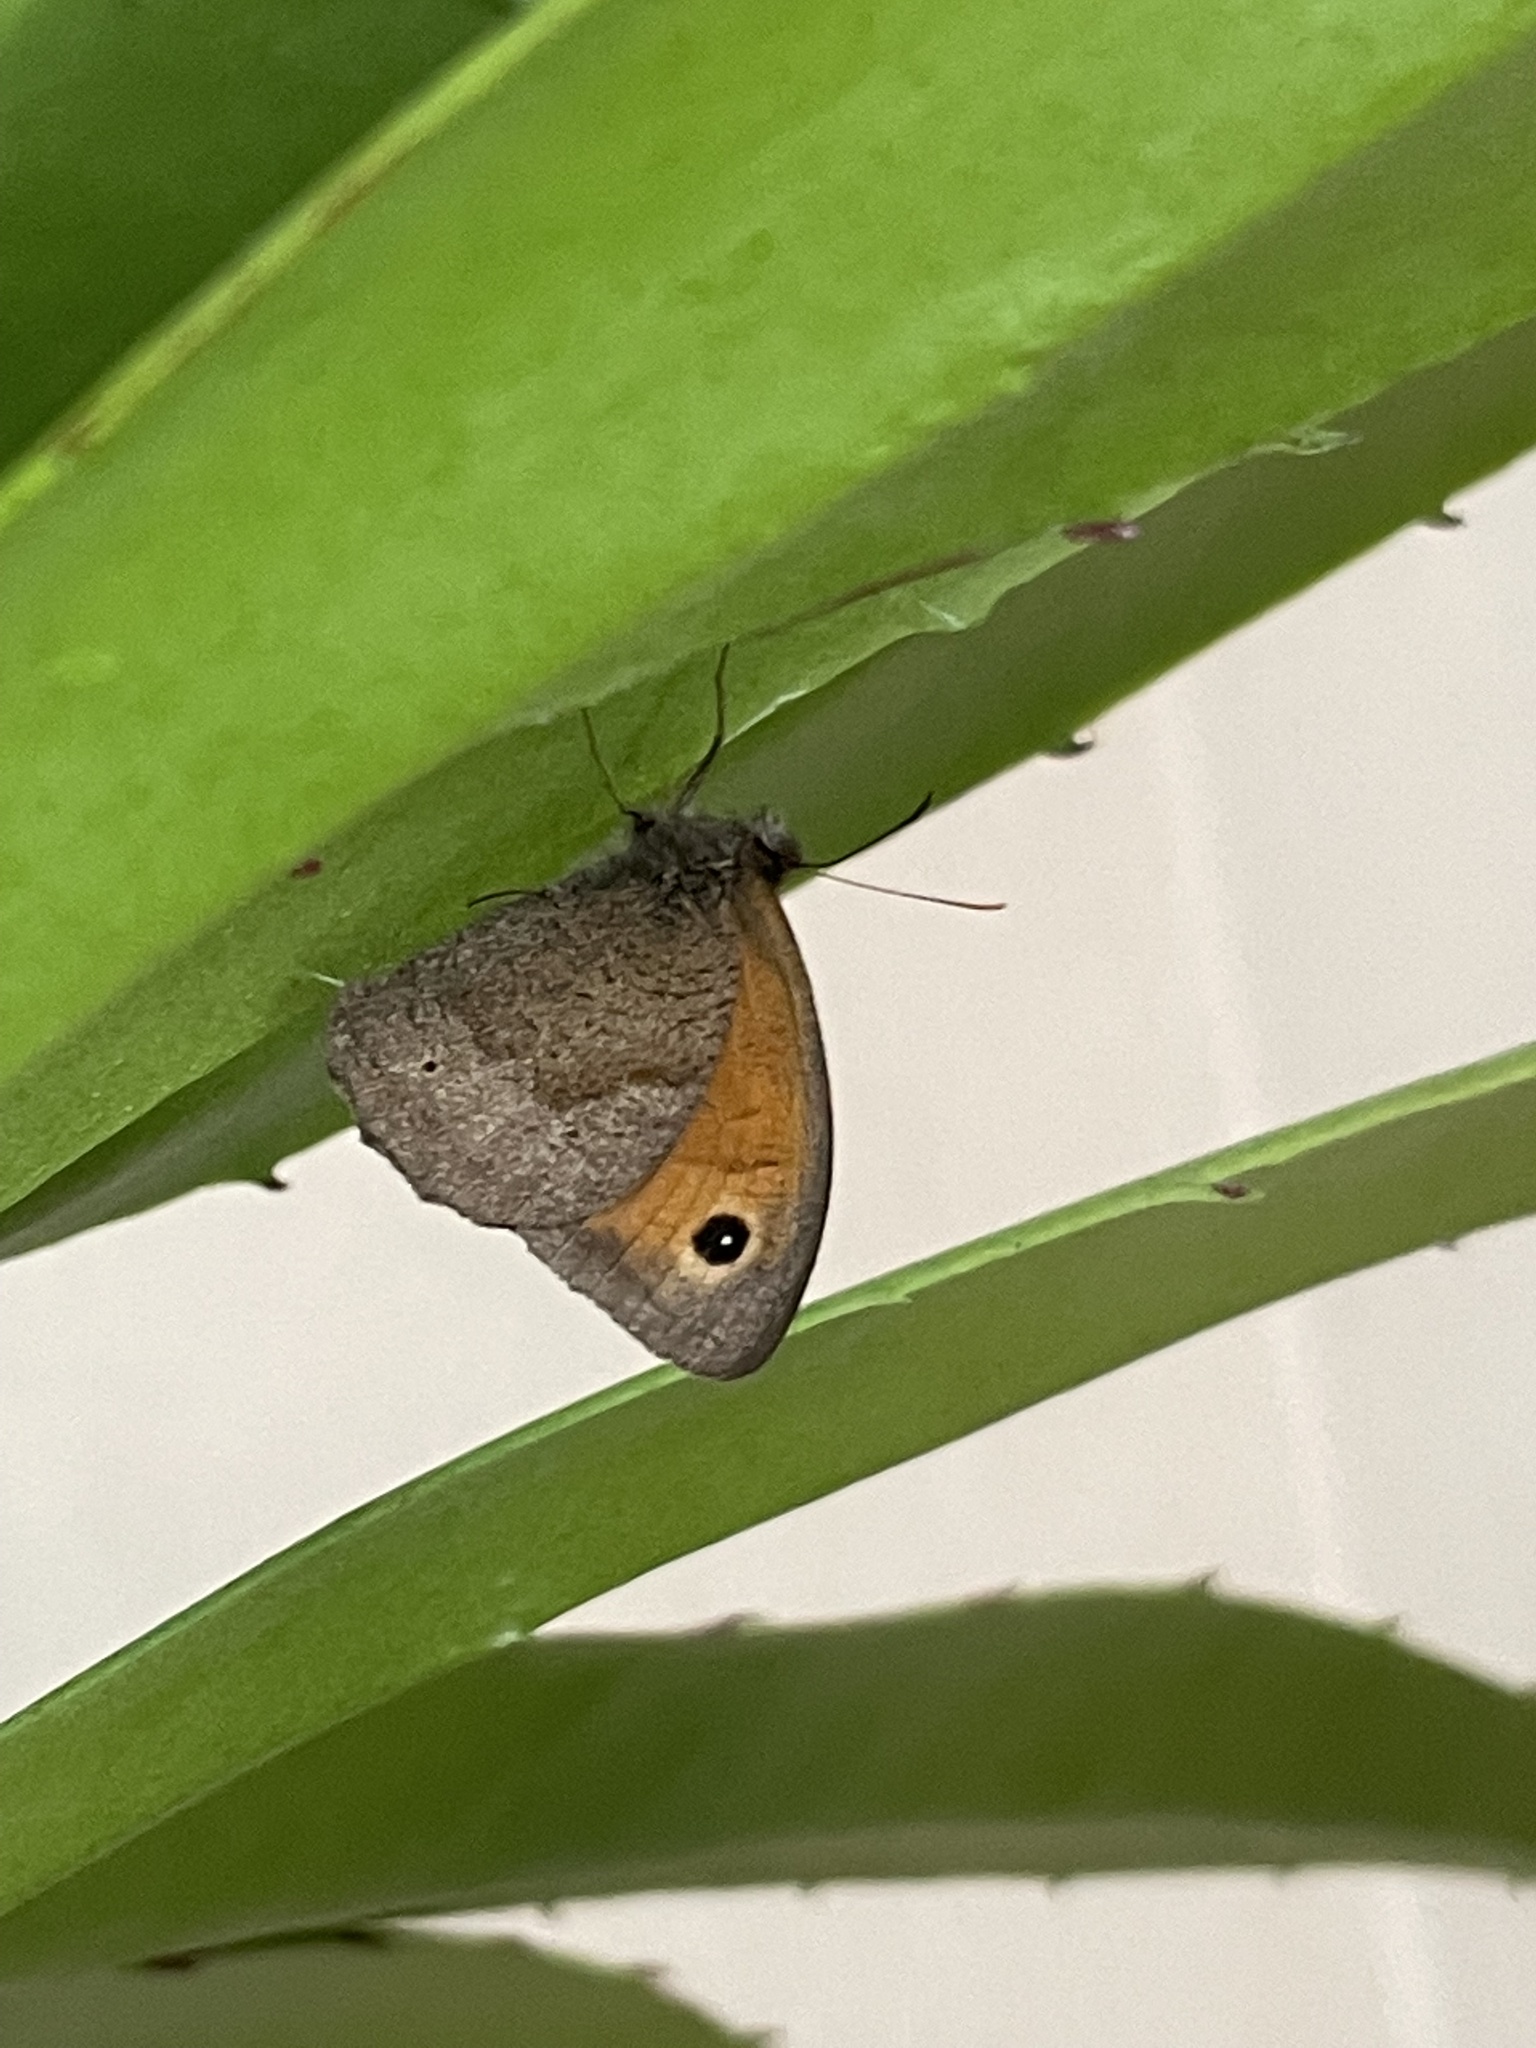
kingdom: Animalia
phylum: Arthropoda
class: Insecta
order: Lepidoptera
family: Nymphalidae
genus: Maniola
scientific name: Maniola jurtina
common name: Meadow brown
